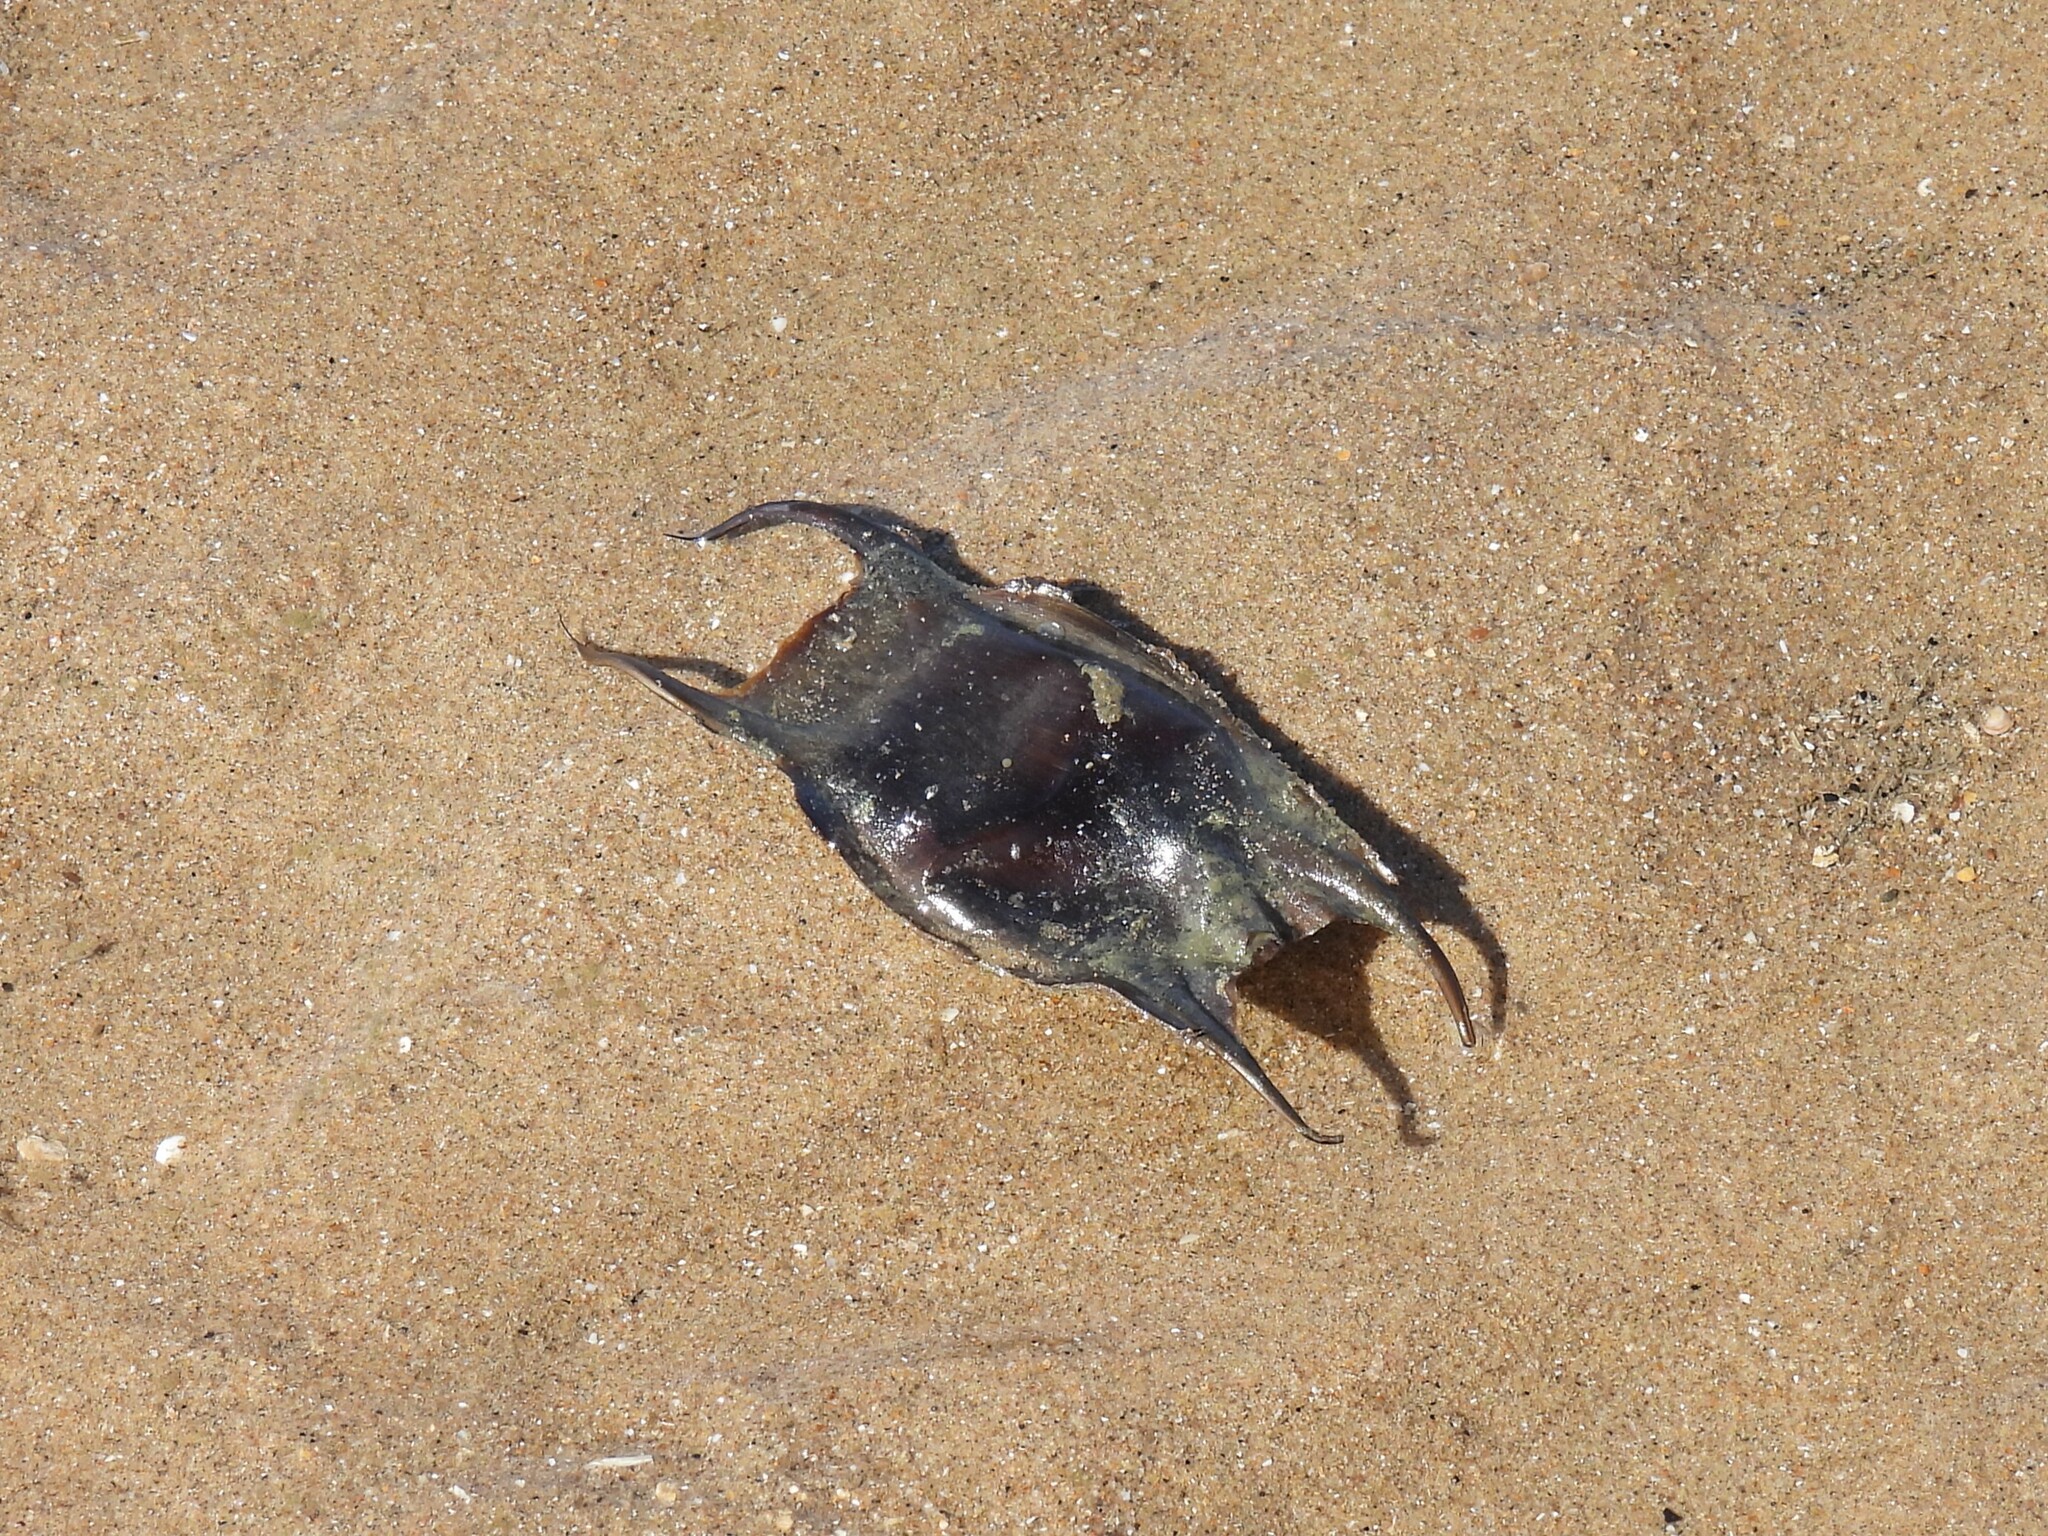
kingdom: Animalia
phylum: Chordata
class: Elasmobranchii
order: Rajiformes
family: Rajidae
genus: Raja
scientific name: Raja clavata
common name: Thornback ray
